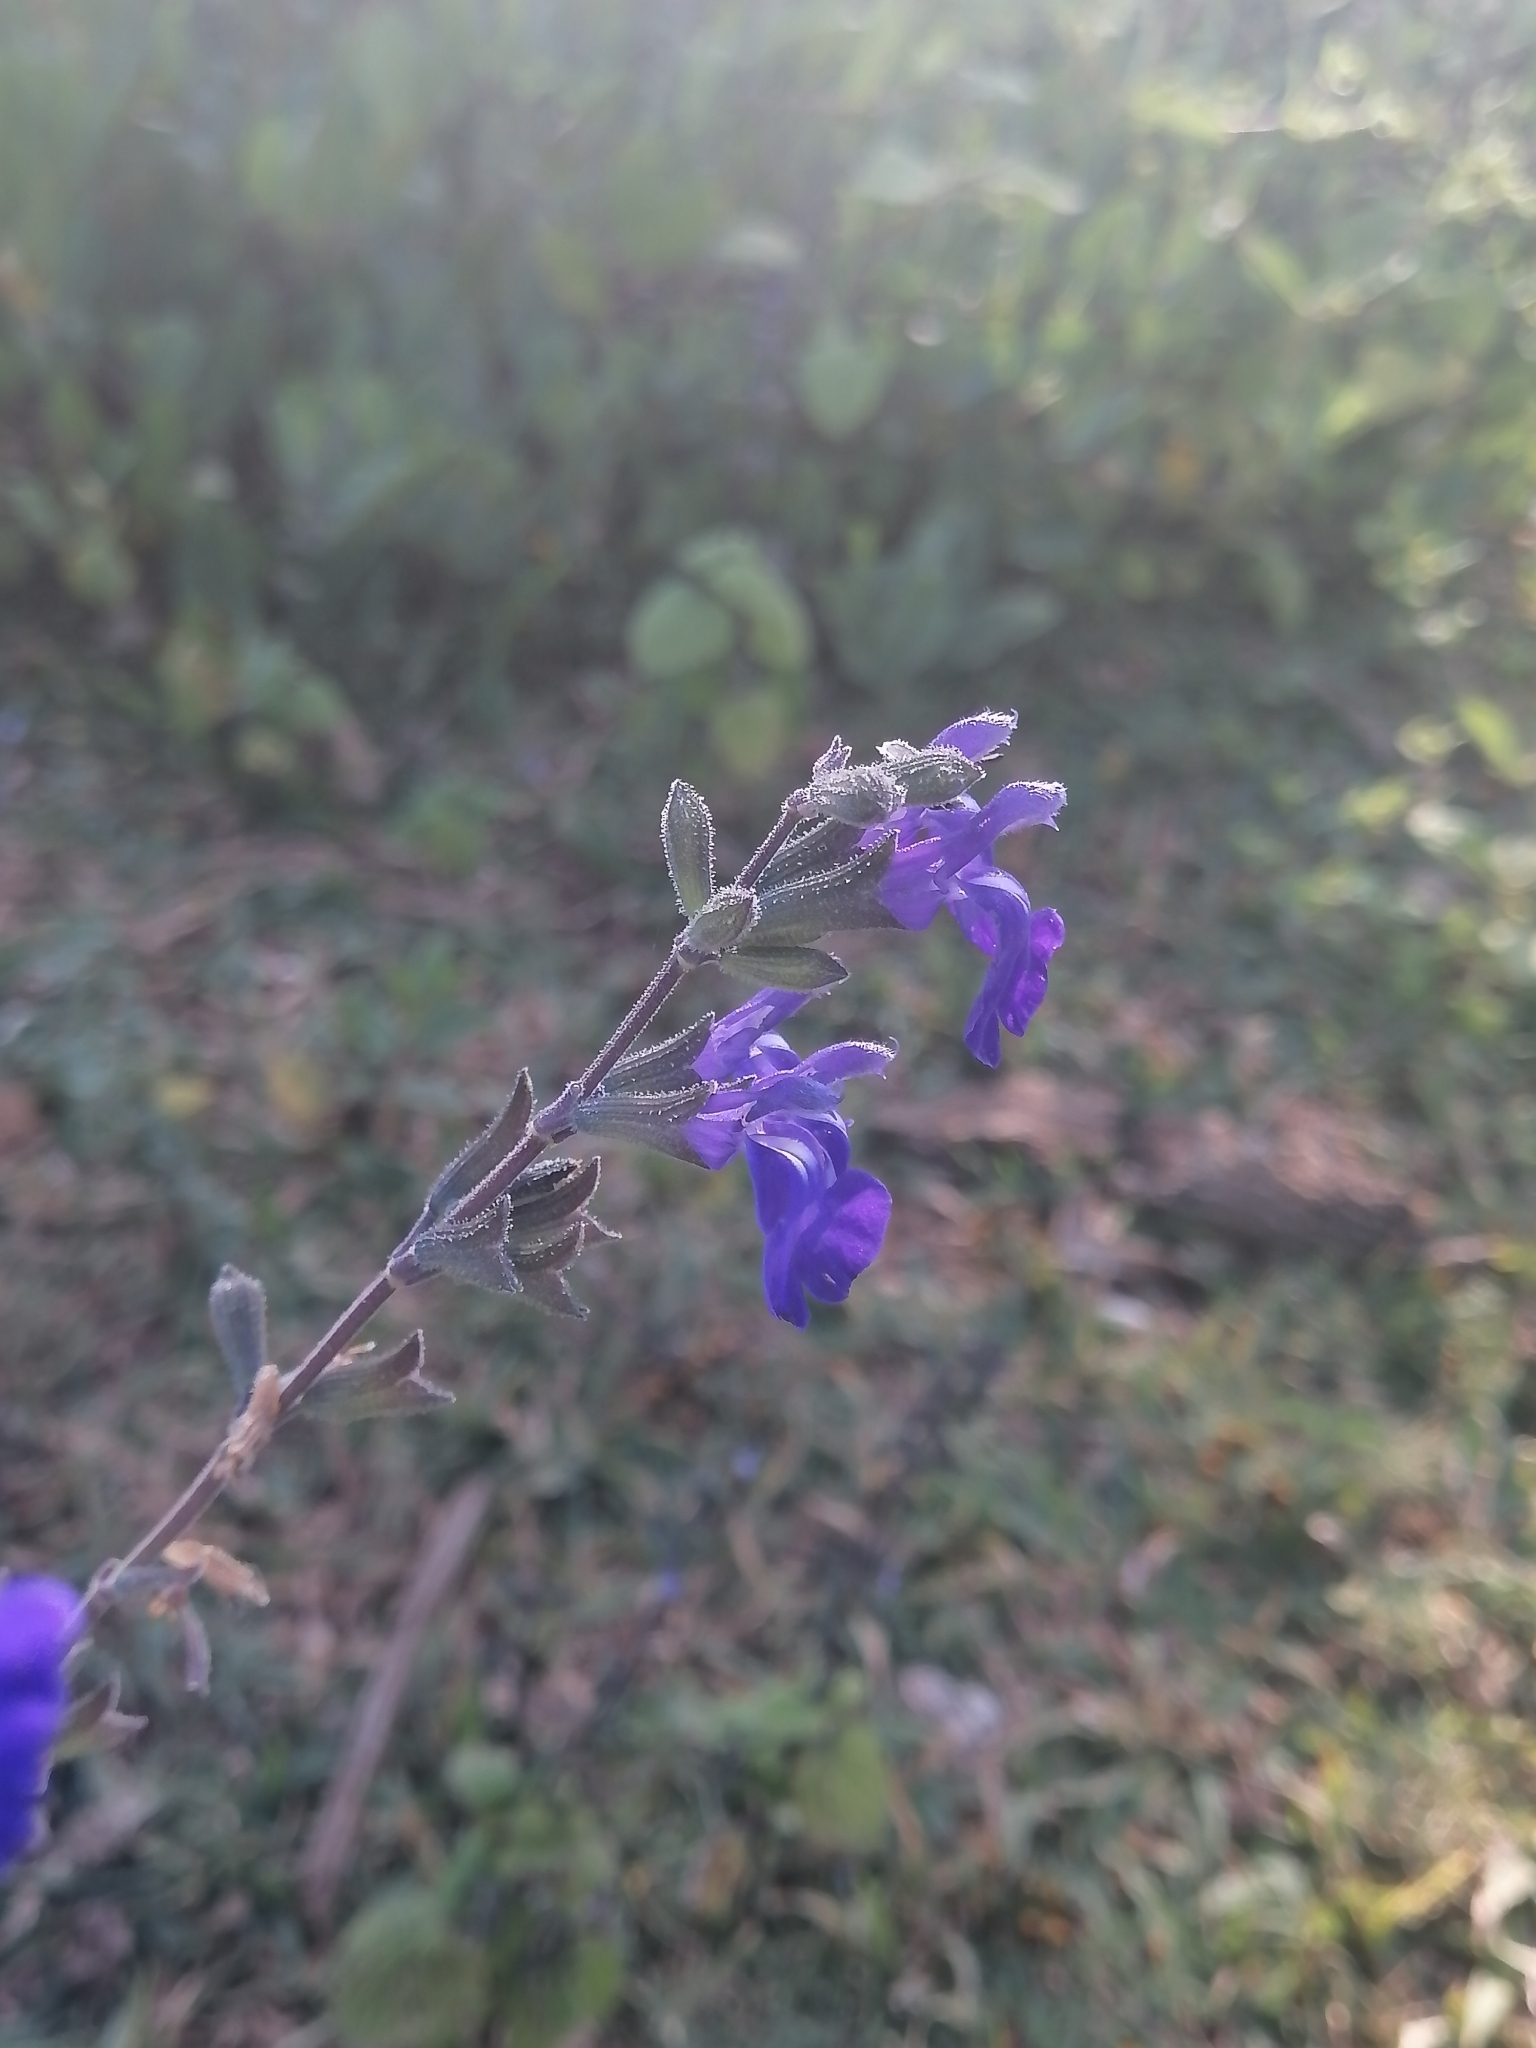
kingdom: Plantae
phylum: Tracheophyta
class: Magnoliopsida
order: Lamiales
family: Lamiaceae
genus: Salvia
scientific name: Salvia chamaedryoides
